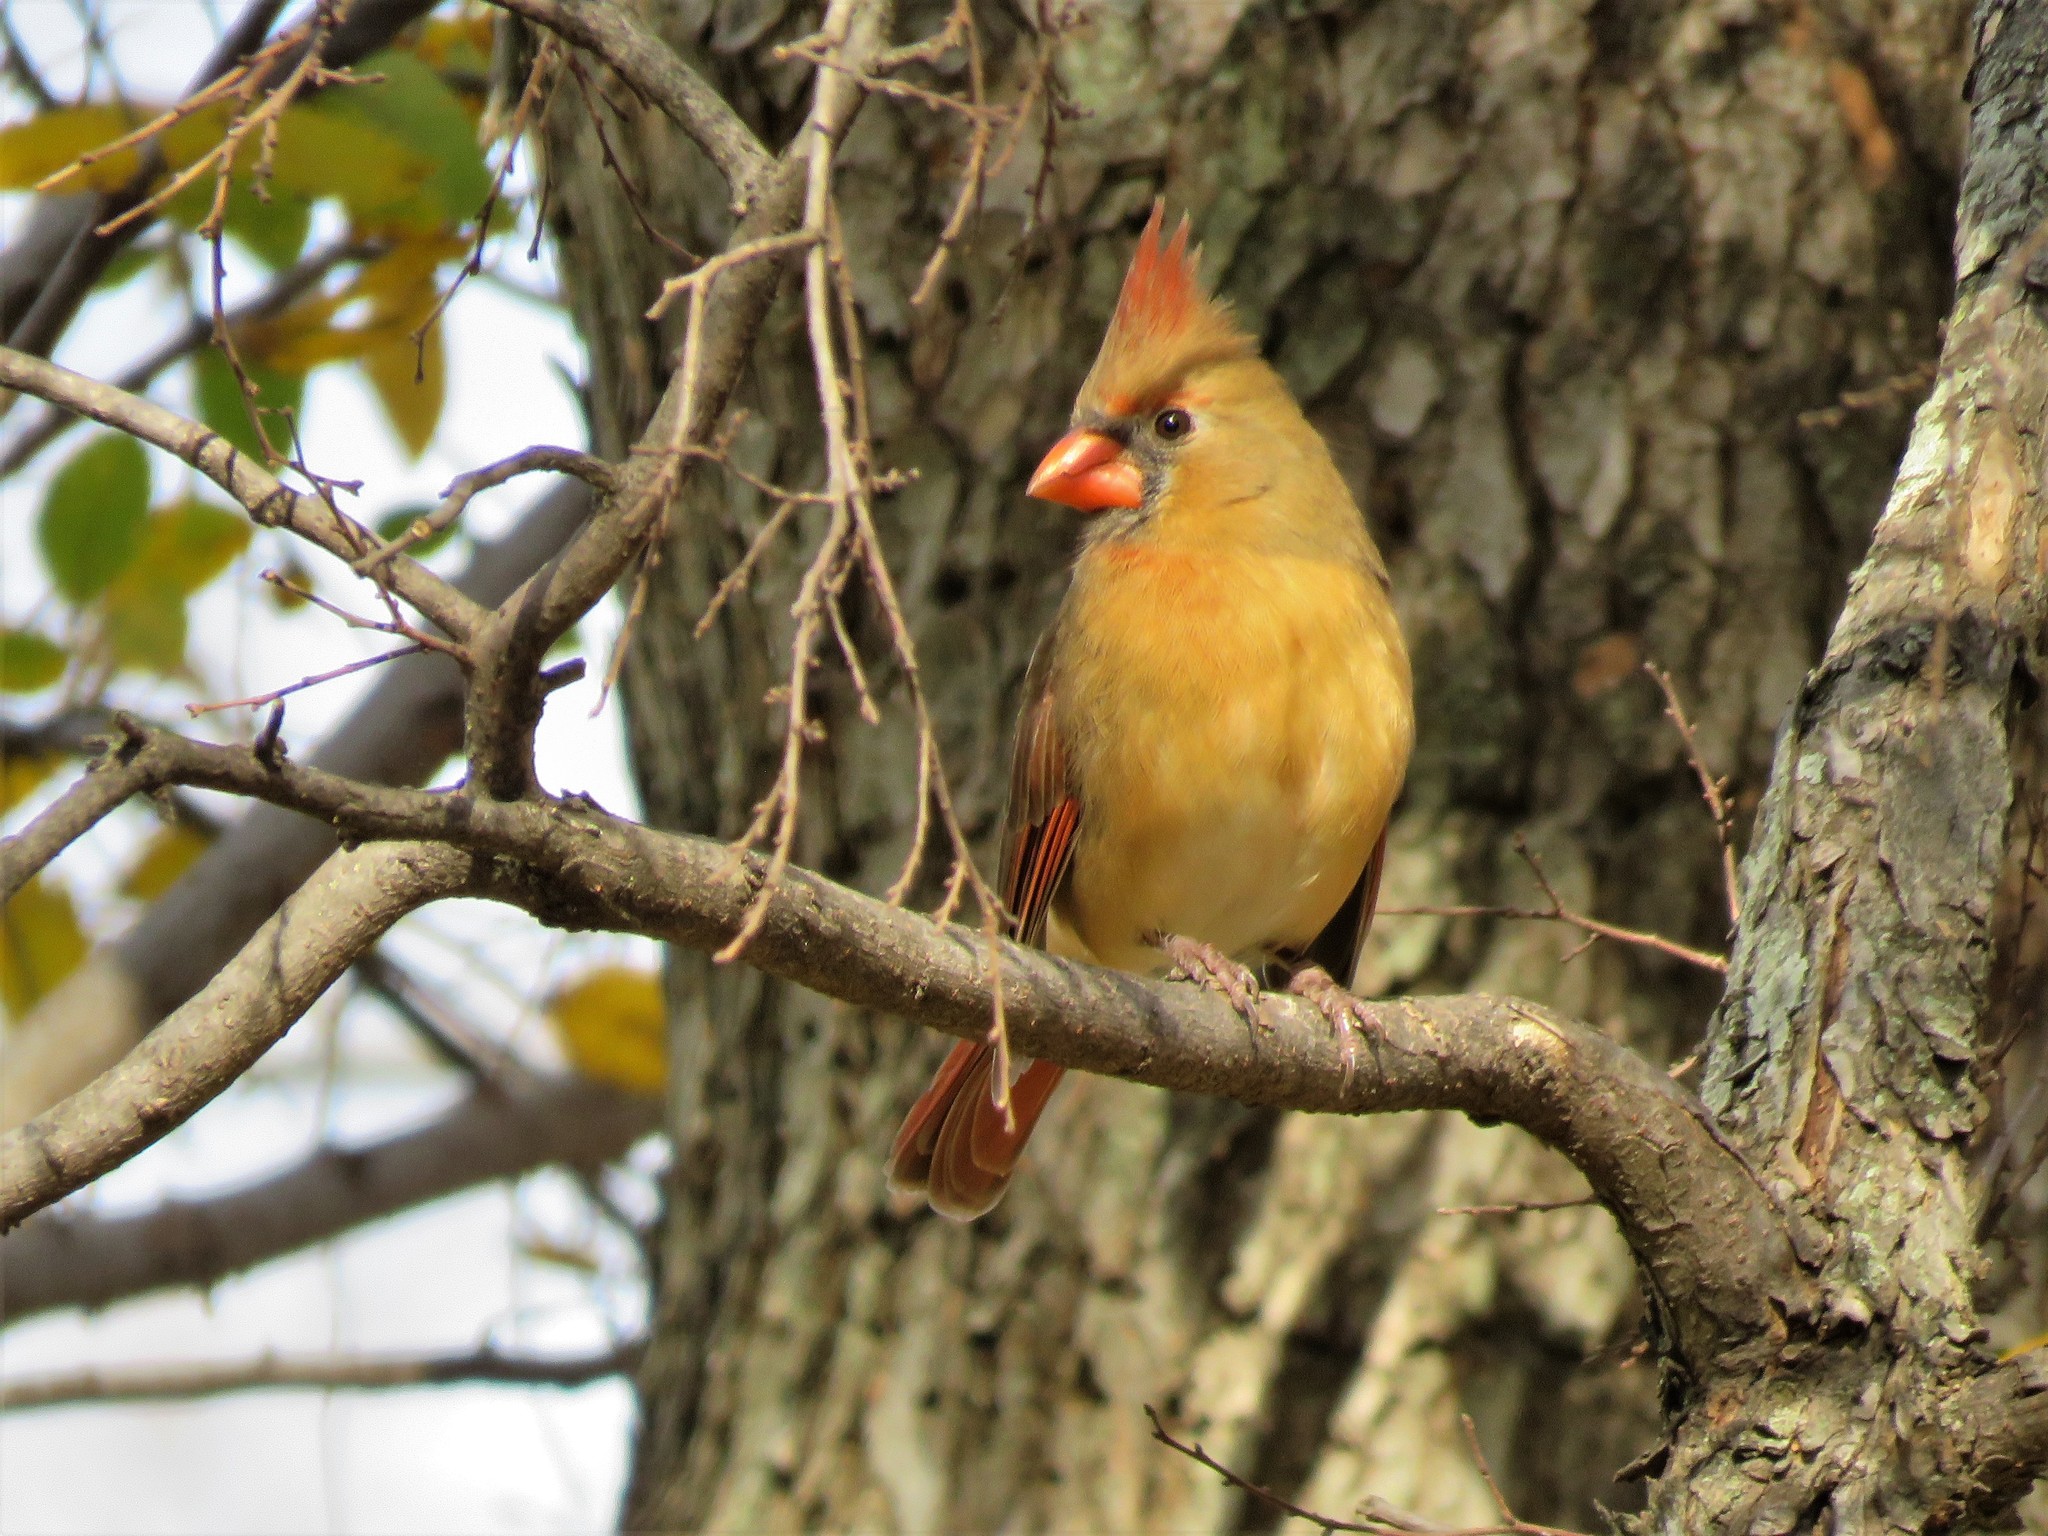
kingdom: Animalia
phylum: Chordata
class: Aves
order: Passeriformes
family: Cardinalidae
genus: Cardinalis
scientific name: Cardinalis cardinalis
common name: Northern cardinal
